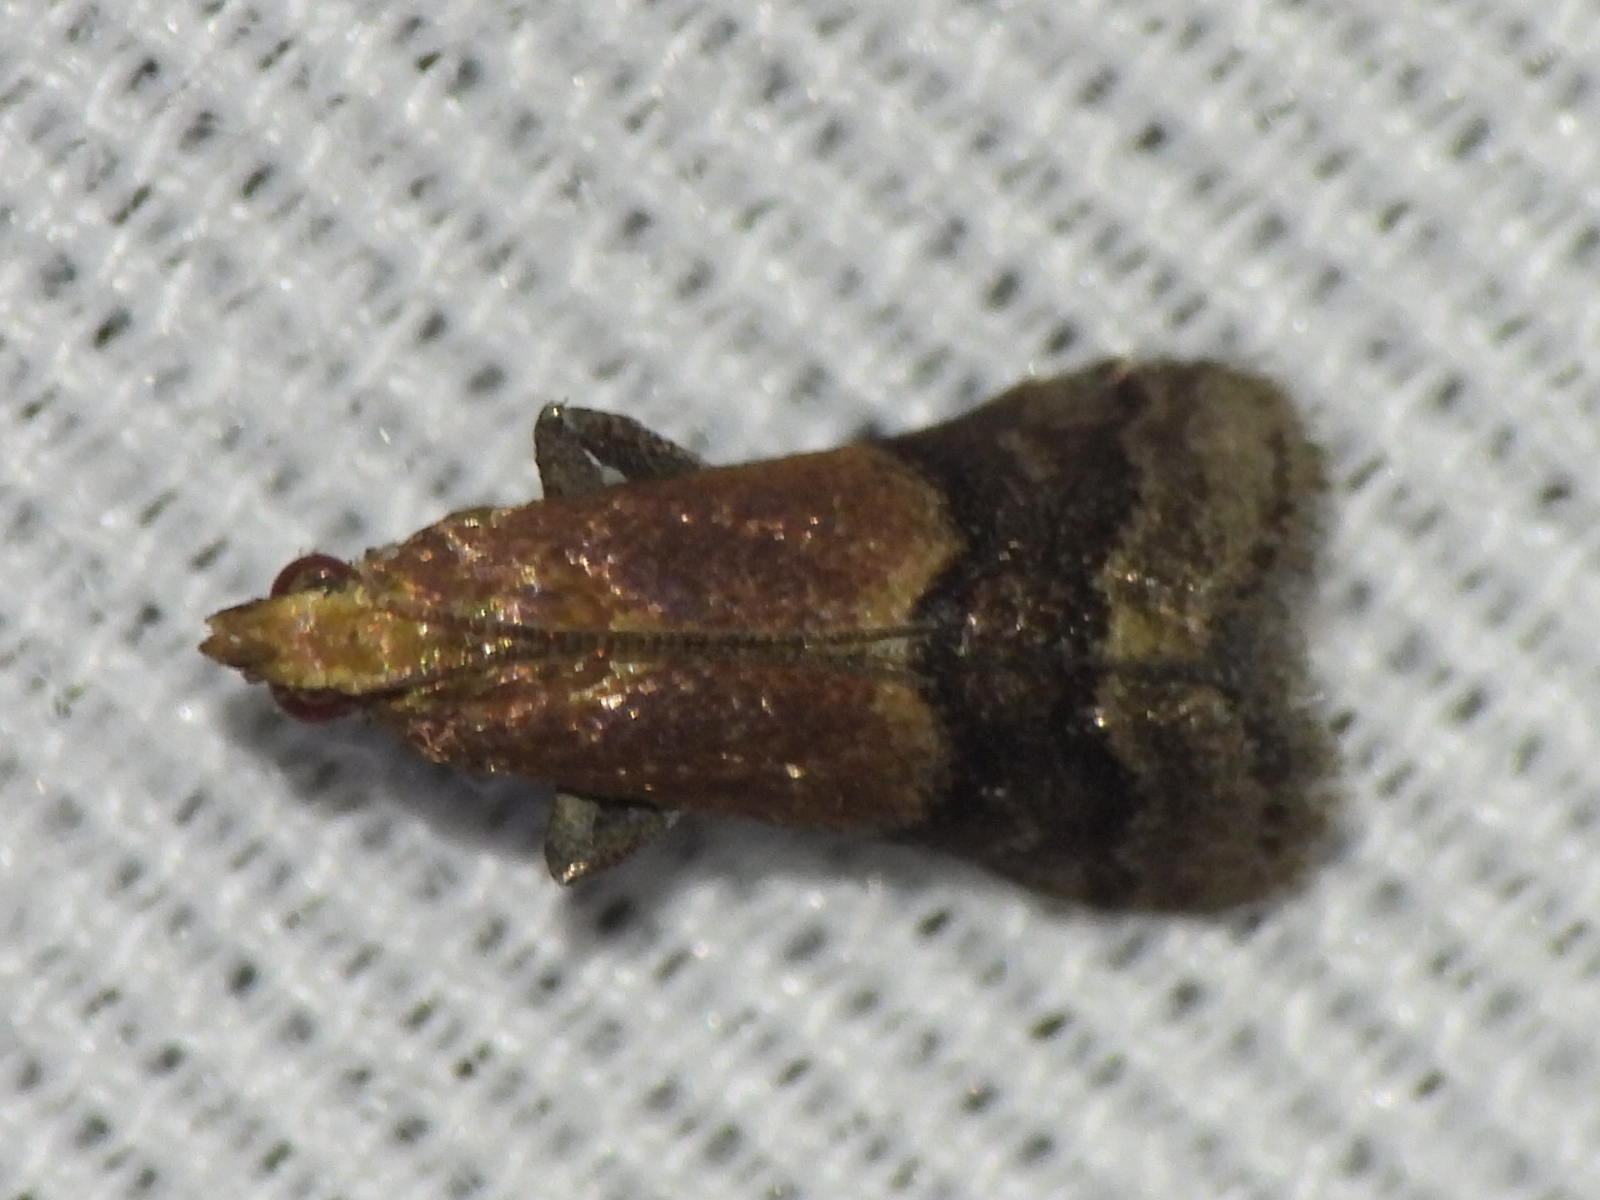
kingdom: Animalia
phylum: Arthropoda
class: Insecta
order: Lepidoptera
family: Pyralidae
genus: Eulogia
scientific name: Eulogia ochrifrontella
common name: Broad-banded eulogia moth
